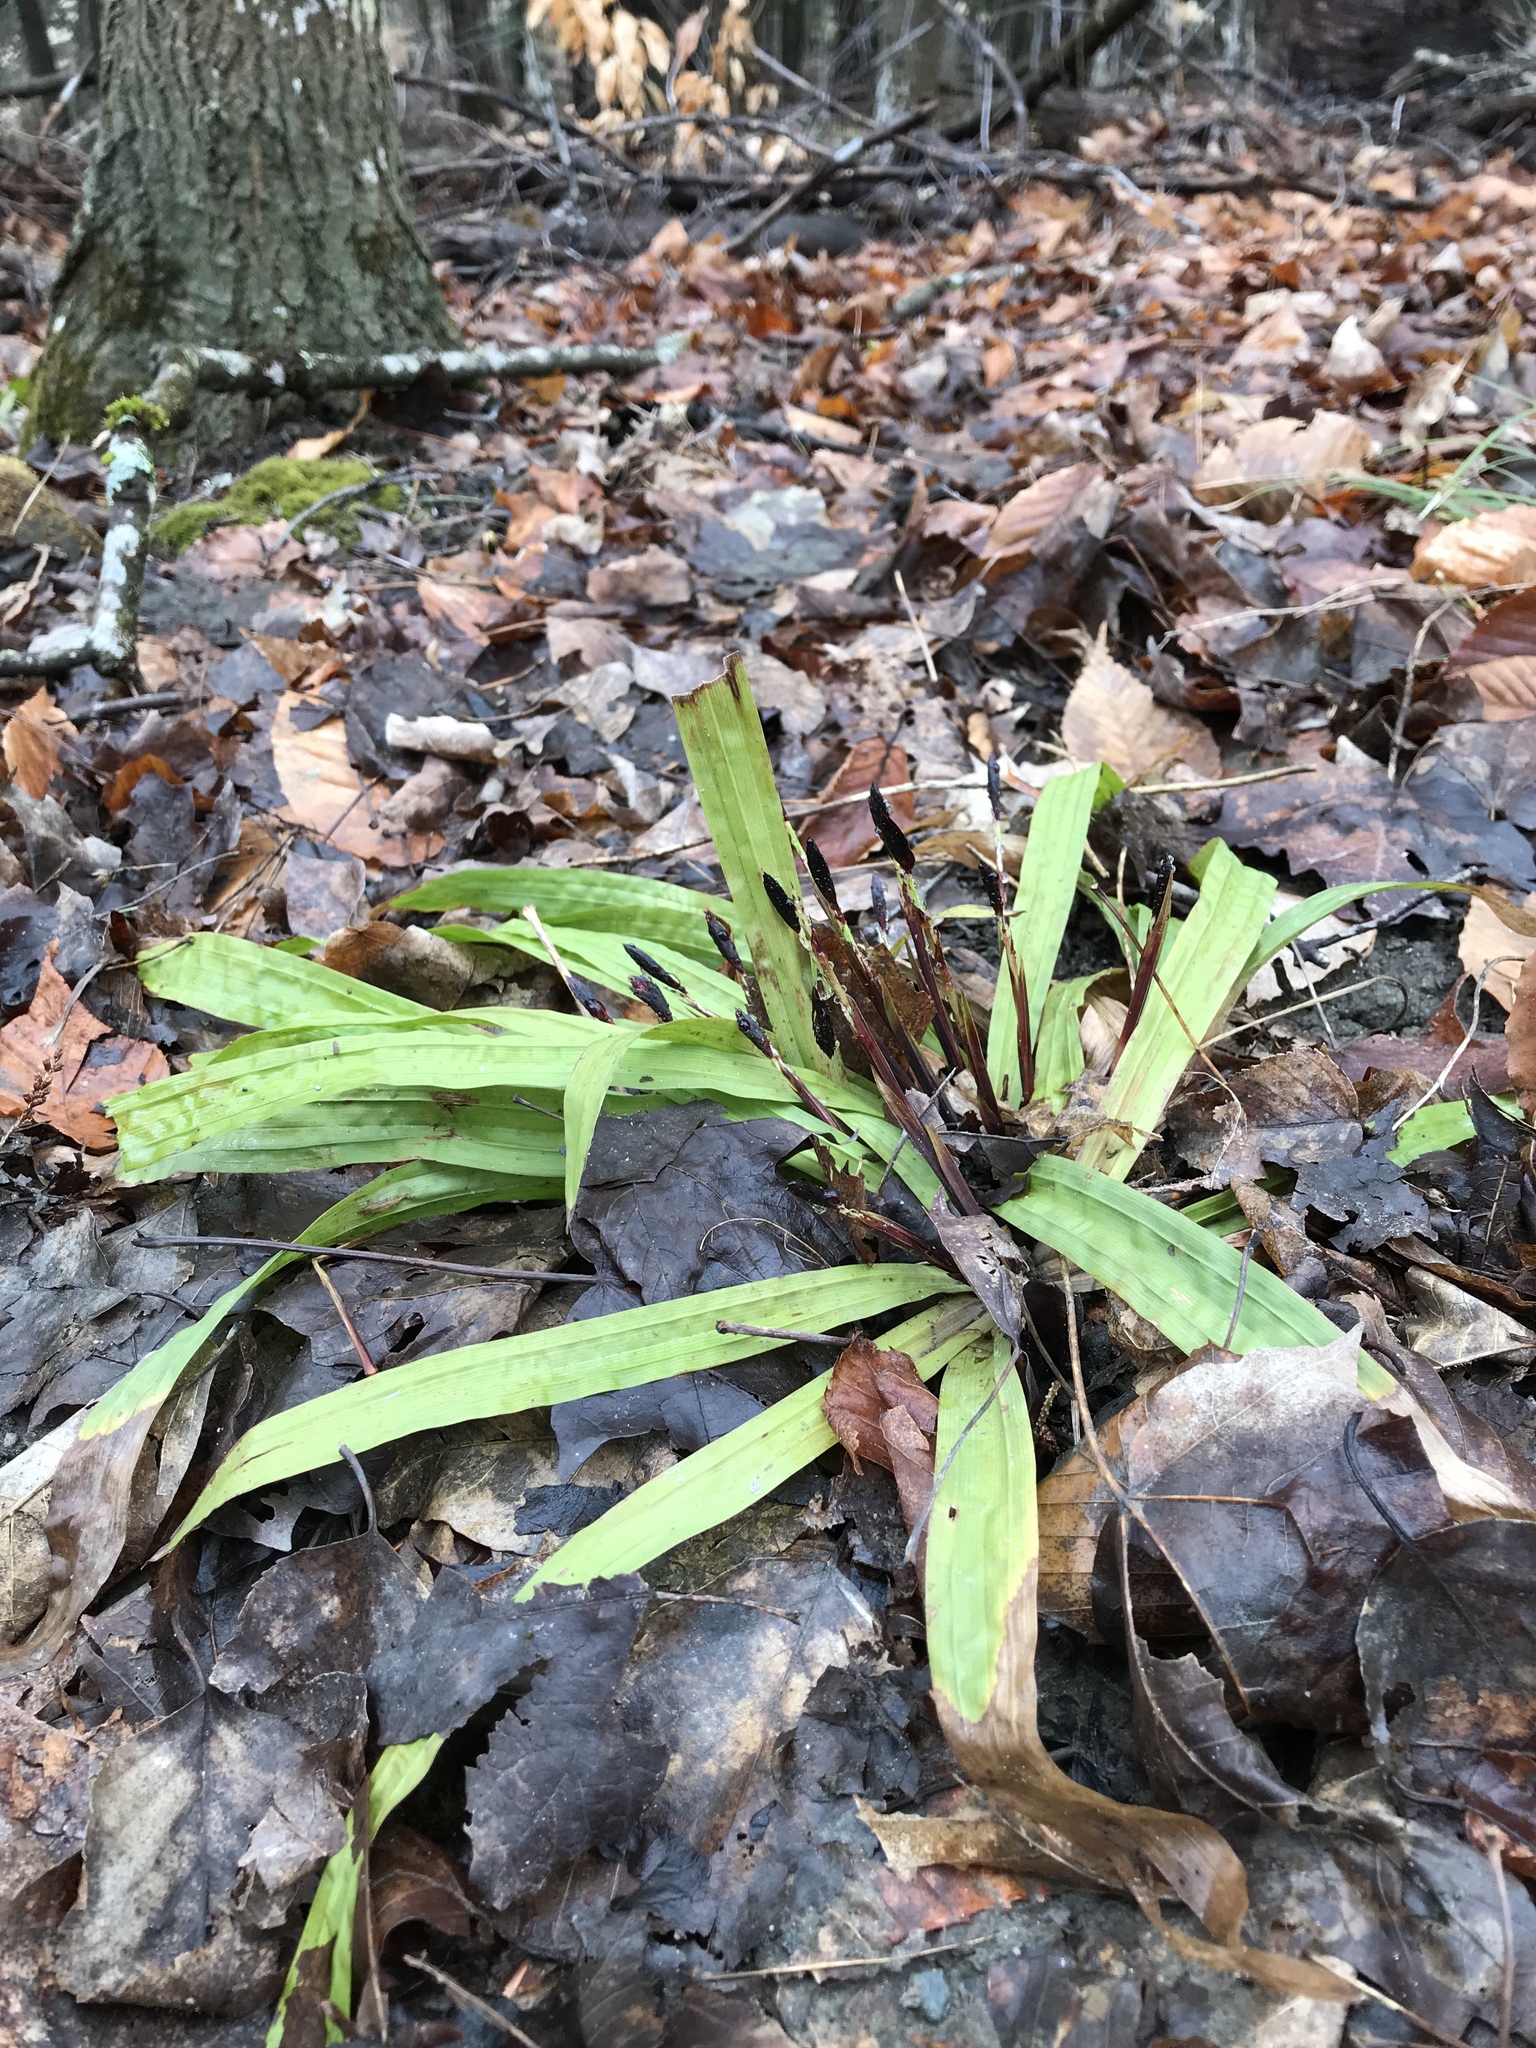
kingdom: Plantae
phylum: Tracheophyta
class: Liliopsida
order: Poales
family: Cyperaceae
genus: Carex
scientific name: Carex plantaginea
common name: Plantain-leaved sedge
